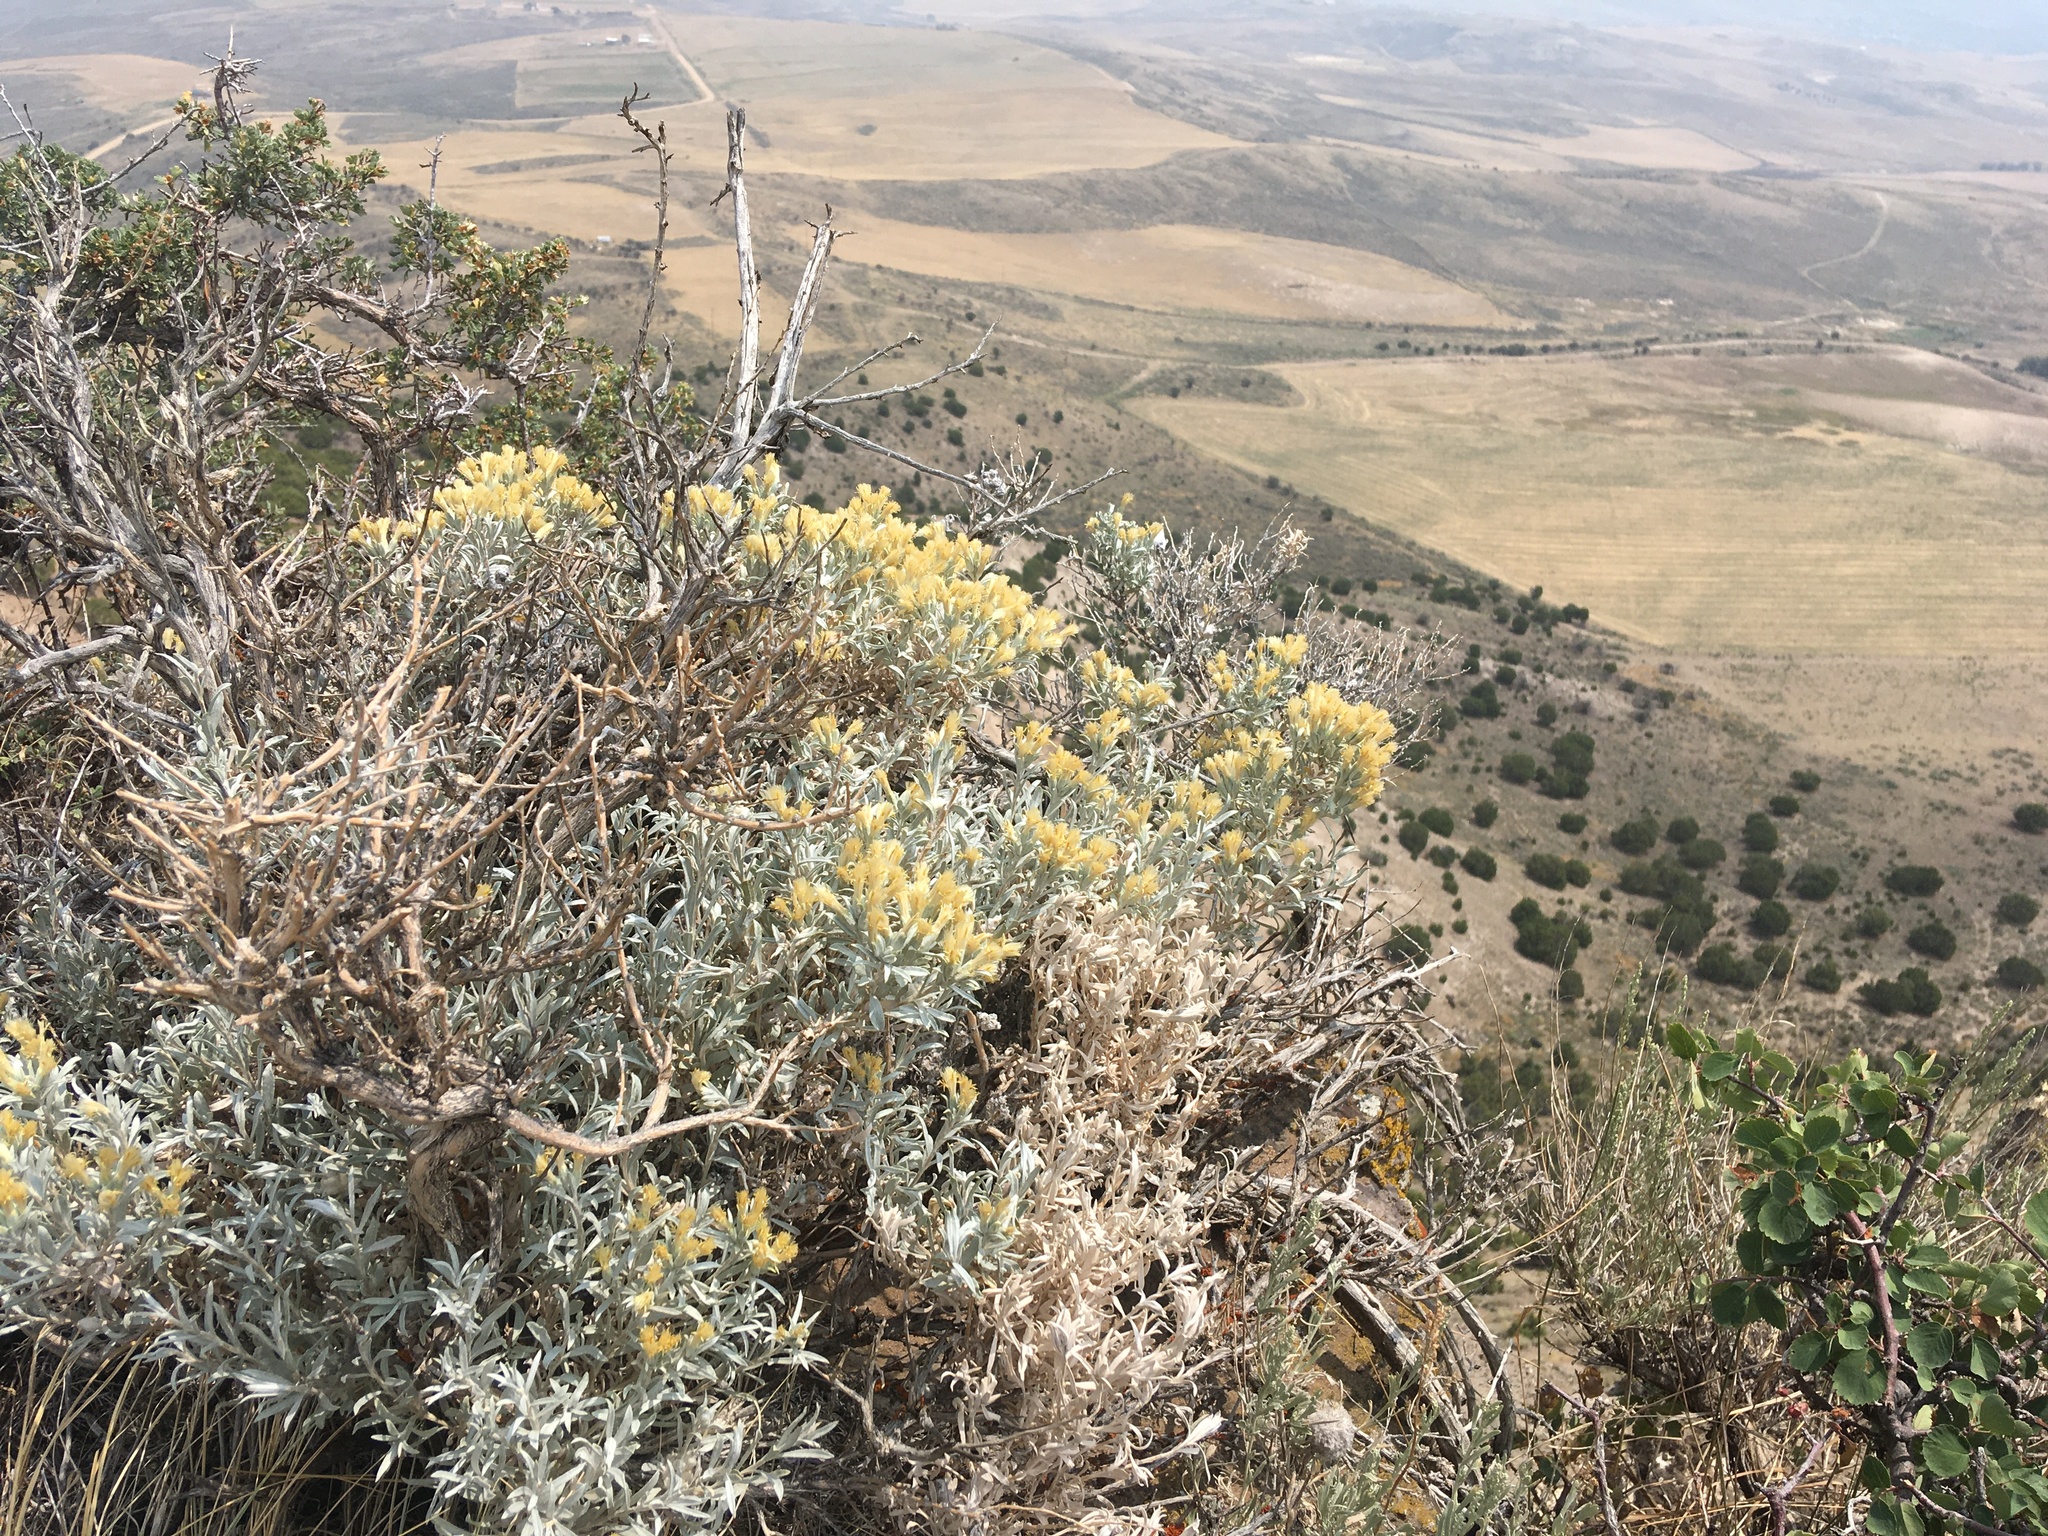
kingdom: Plantae
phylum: Tracheophyta
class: Magnoliopsida
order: Asterales
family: Asteraceae
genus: Tetradymia
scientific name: Tetradymia canescens
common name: Spineless horsebrush
